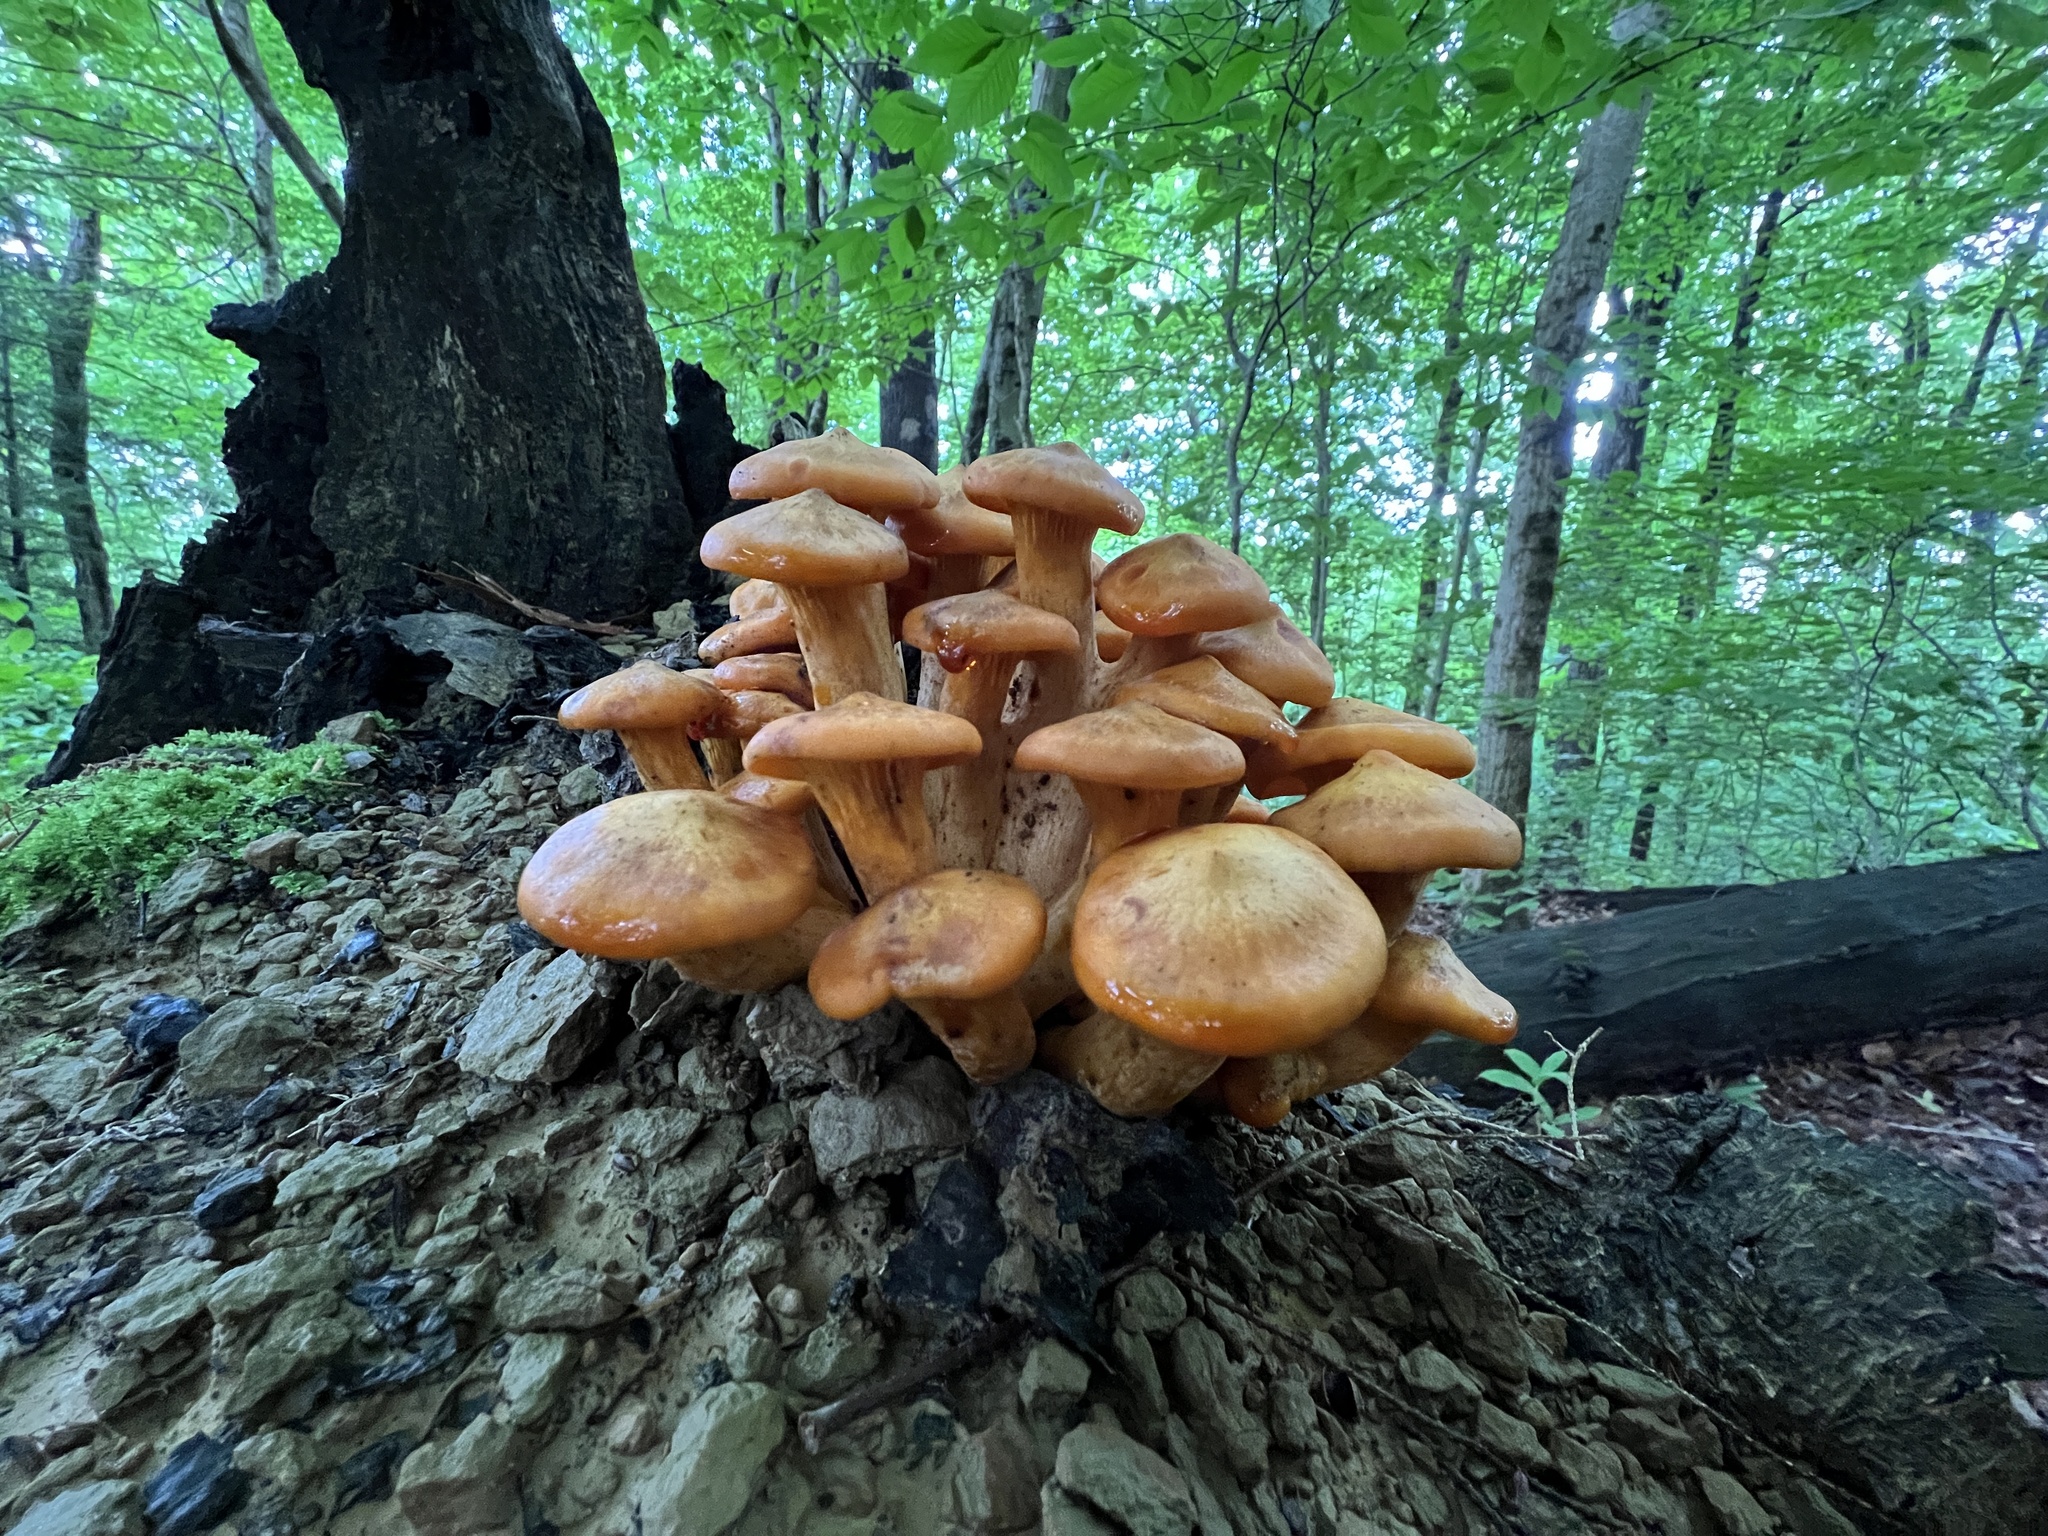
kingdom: Fungi
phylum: Basidiomycota
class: Agaricomycetes
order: Agaricales
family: Omphalotaceae
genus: Omphalotus
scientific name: Omphalotus illudens
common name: Jack o lantern
